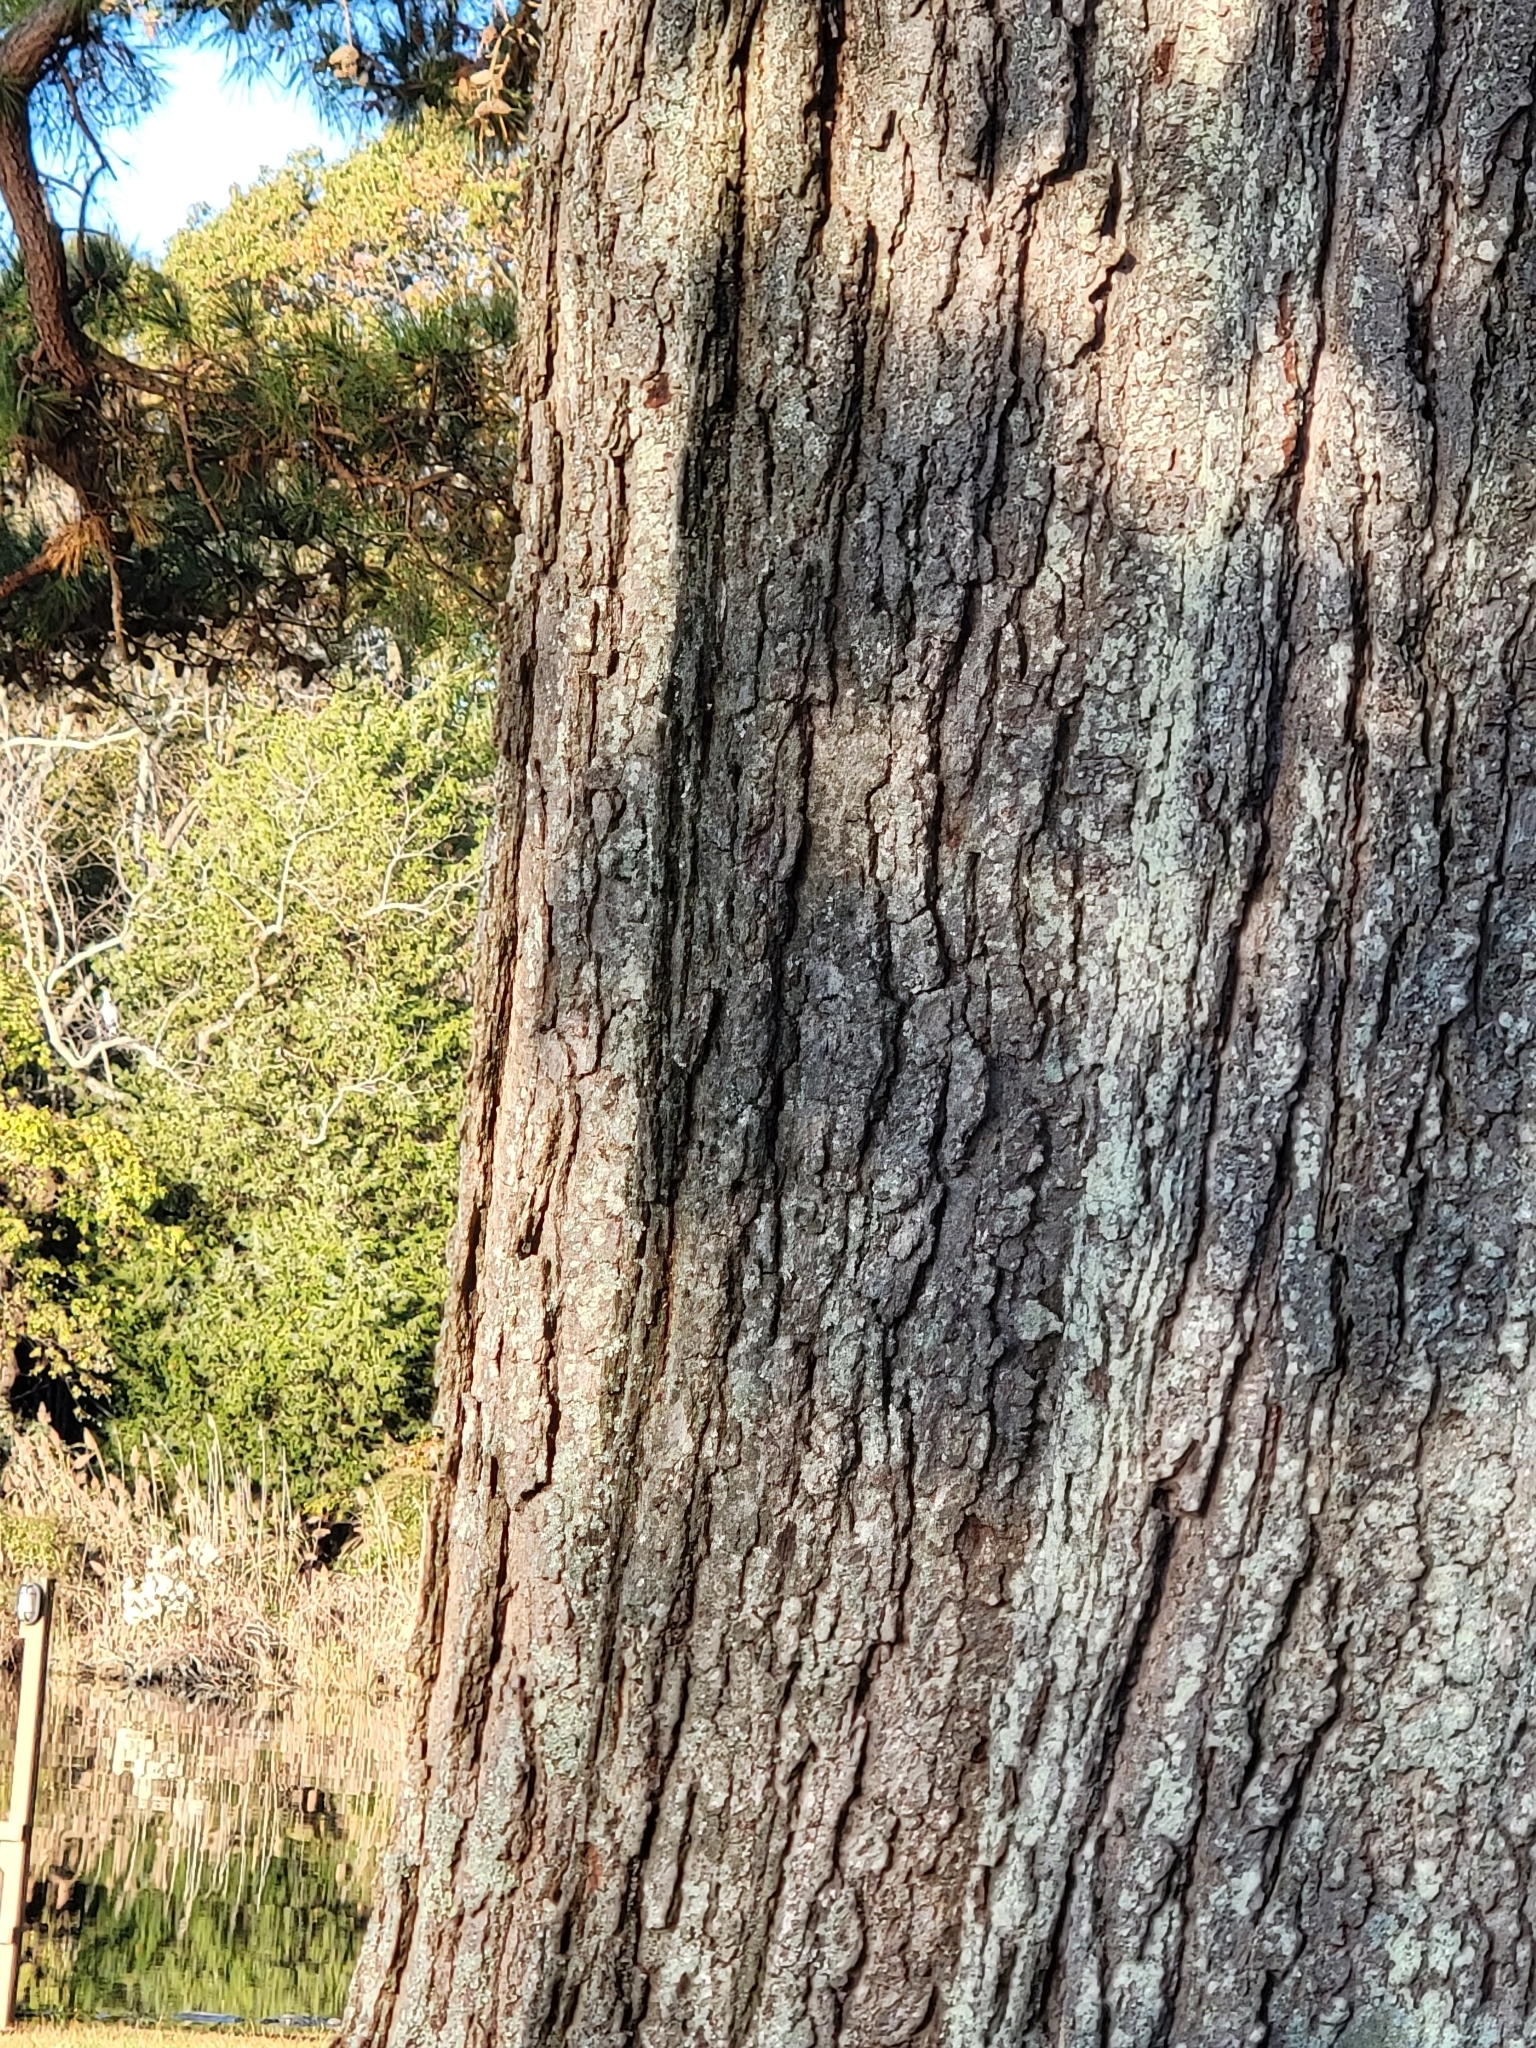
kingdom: Plantae
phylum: Tracheophyta
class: Magnoliopsida
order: Fagales
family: Fagaceae
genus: Quercus
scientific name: Quercus falcata
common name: Southern red oak
